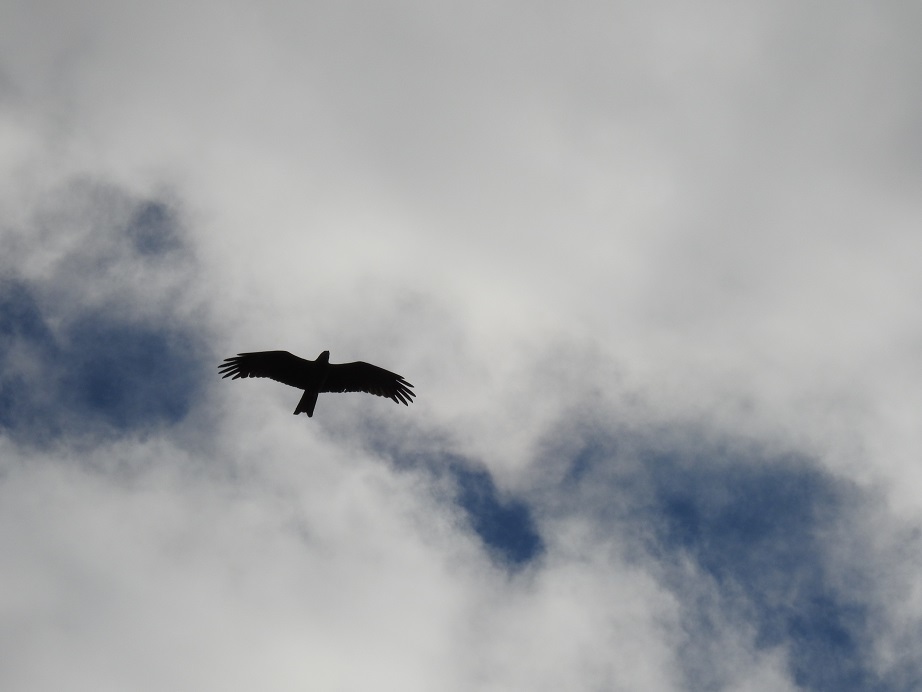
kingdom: Animalia
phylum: Chordata
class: Aves
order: Accipitriformes
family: Accipitridae
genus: Milvus
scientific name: Milvus migrans
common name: Black kite
